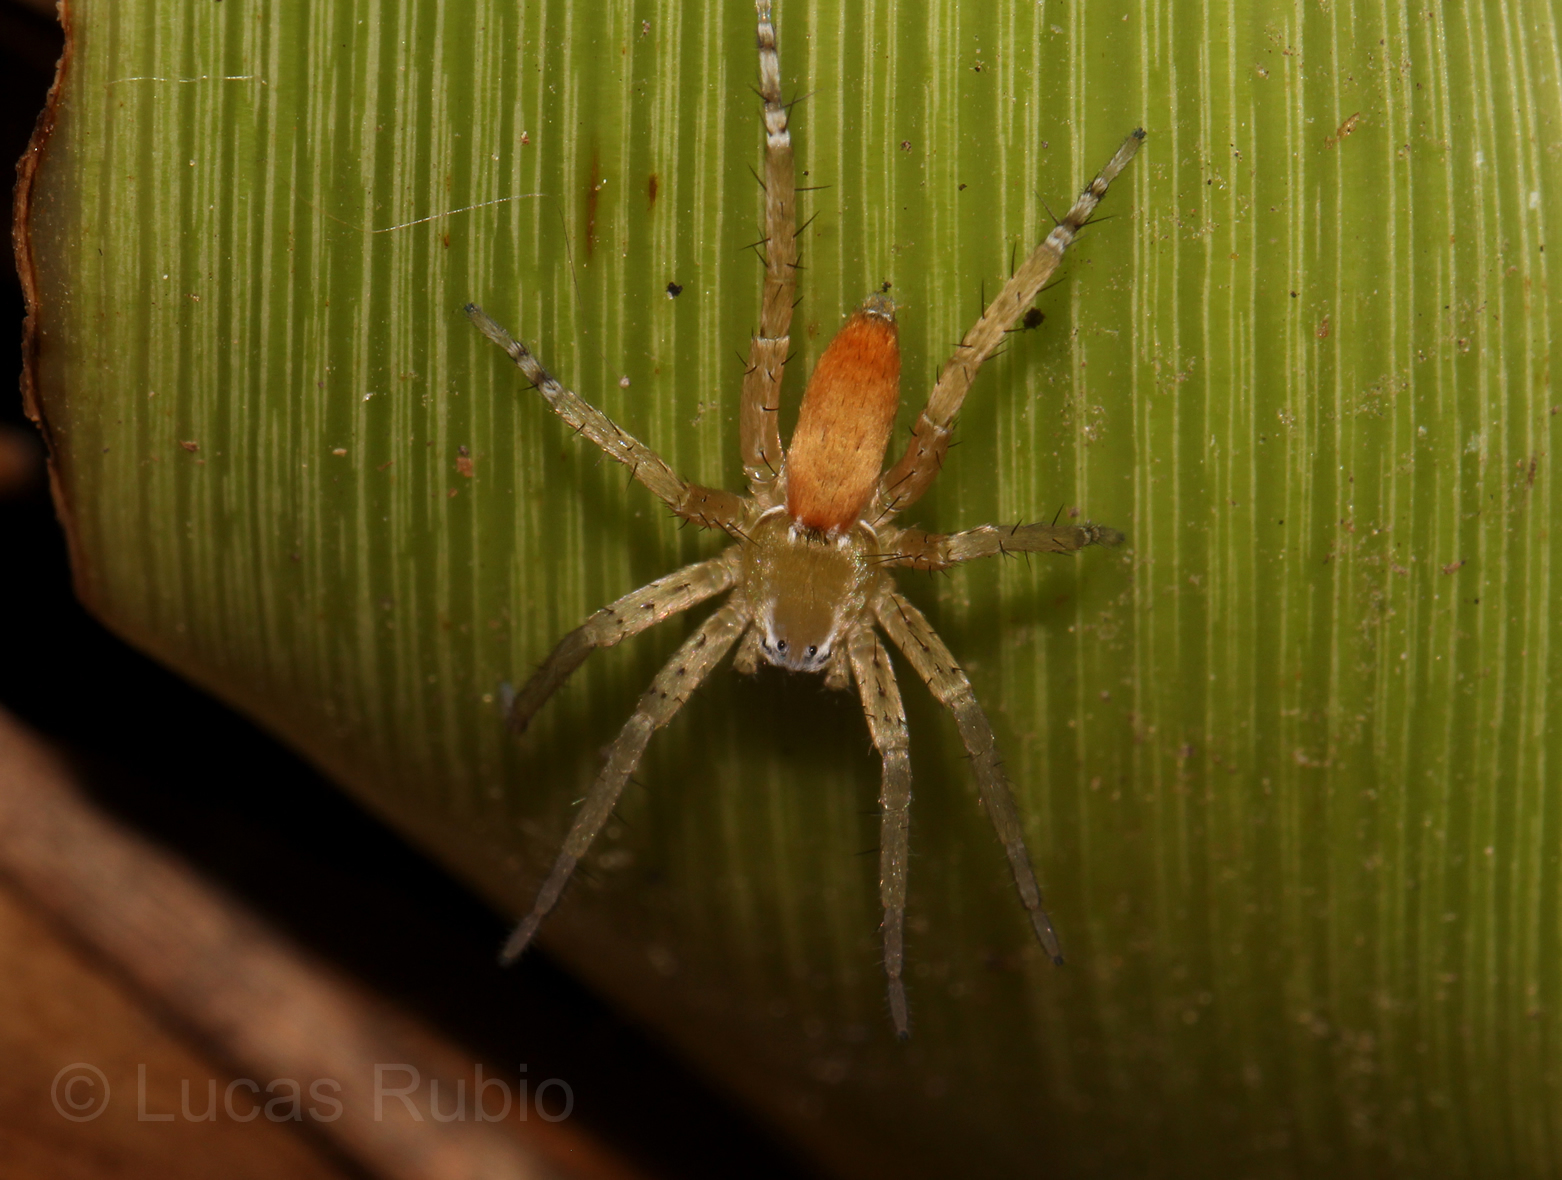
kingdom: Animalia
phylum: Arthropoda
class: Arachnida
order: Araneae
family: Anyphaenidae
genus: Arachosia
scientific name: Arachosia proseni
